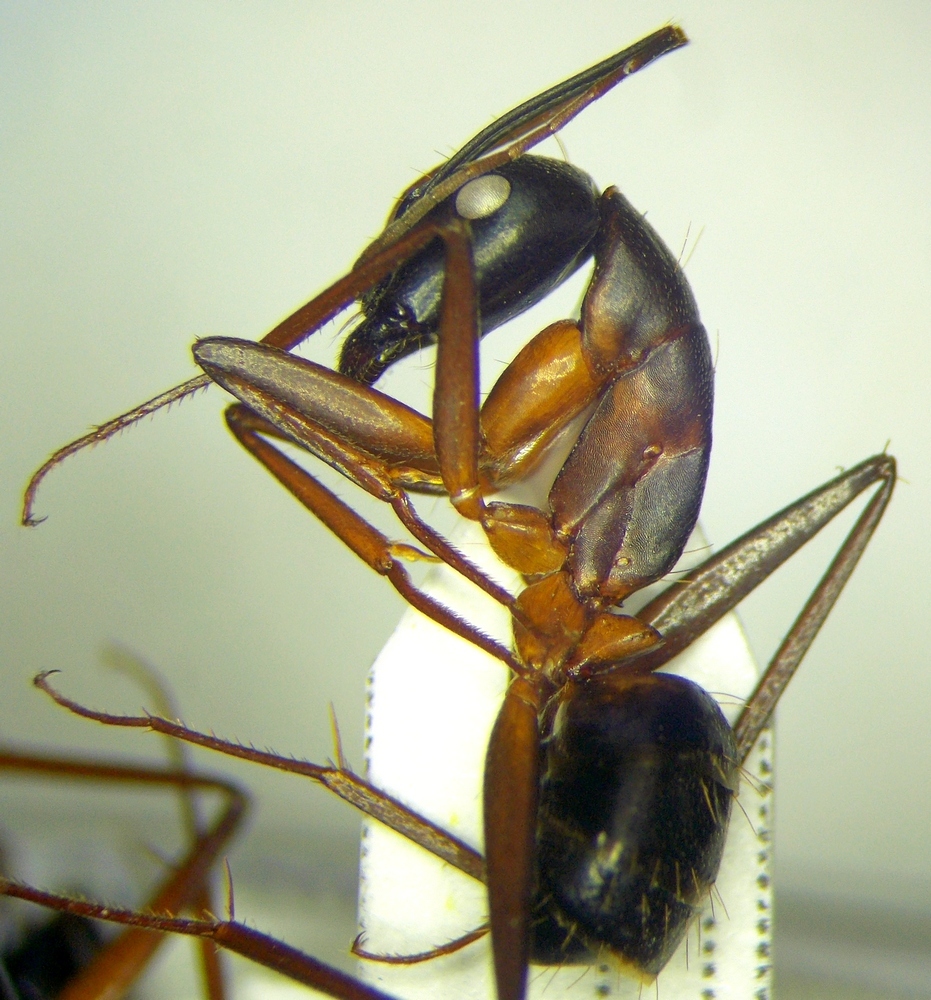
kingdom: Animalia
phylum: Arthropoda
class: Insecta
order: Hymenoptera
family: Formicidae
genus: Camponotus
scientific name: Camponotus sanctus
